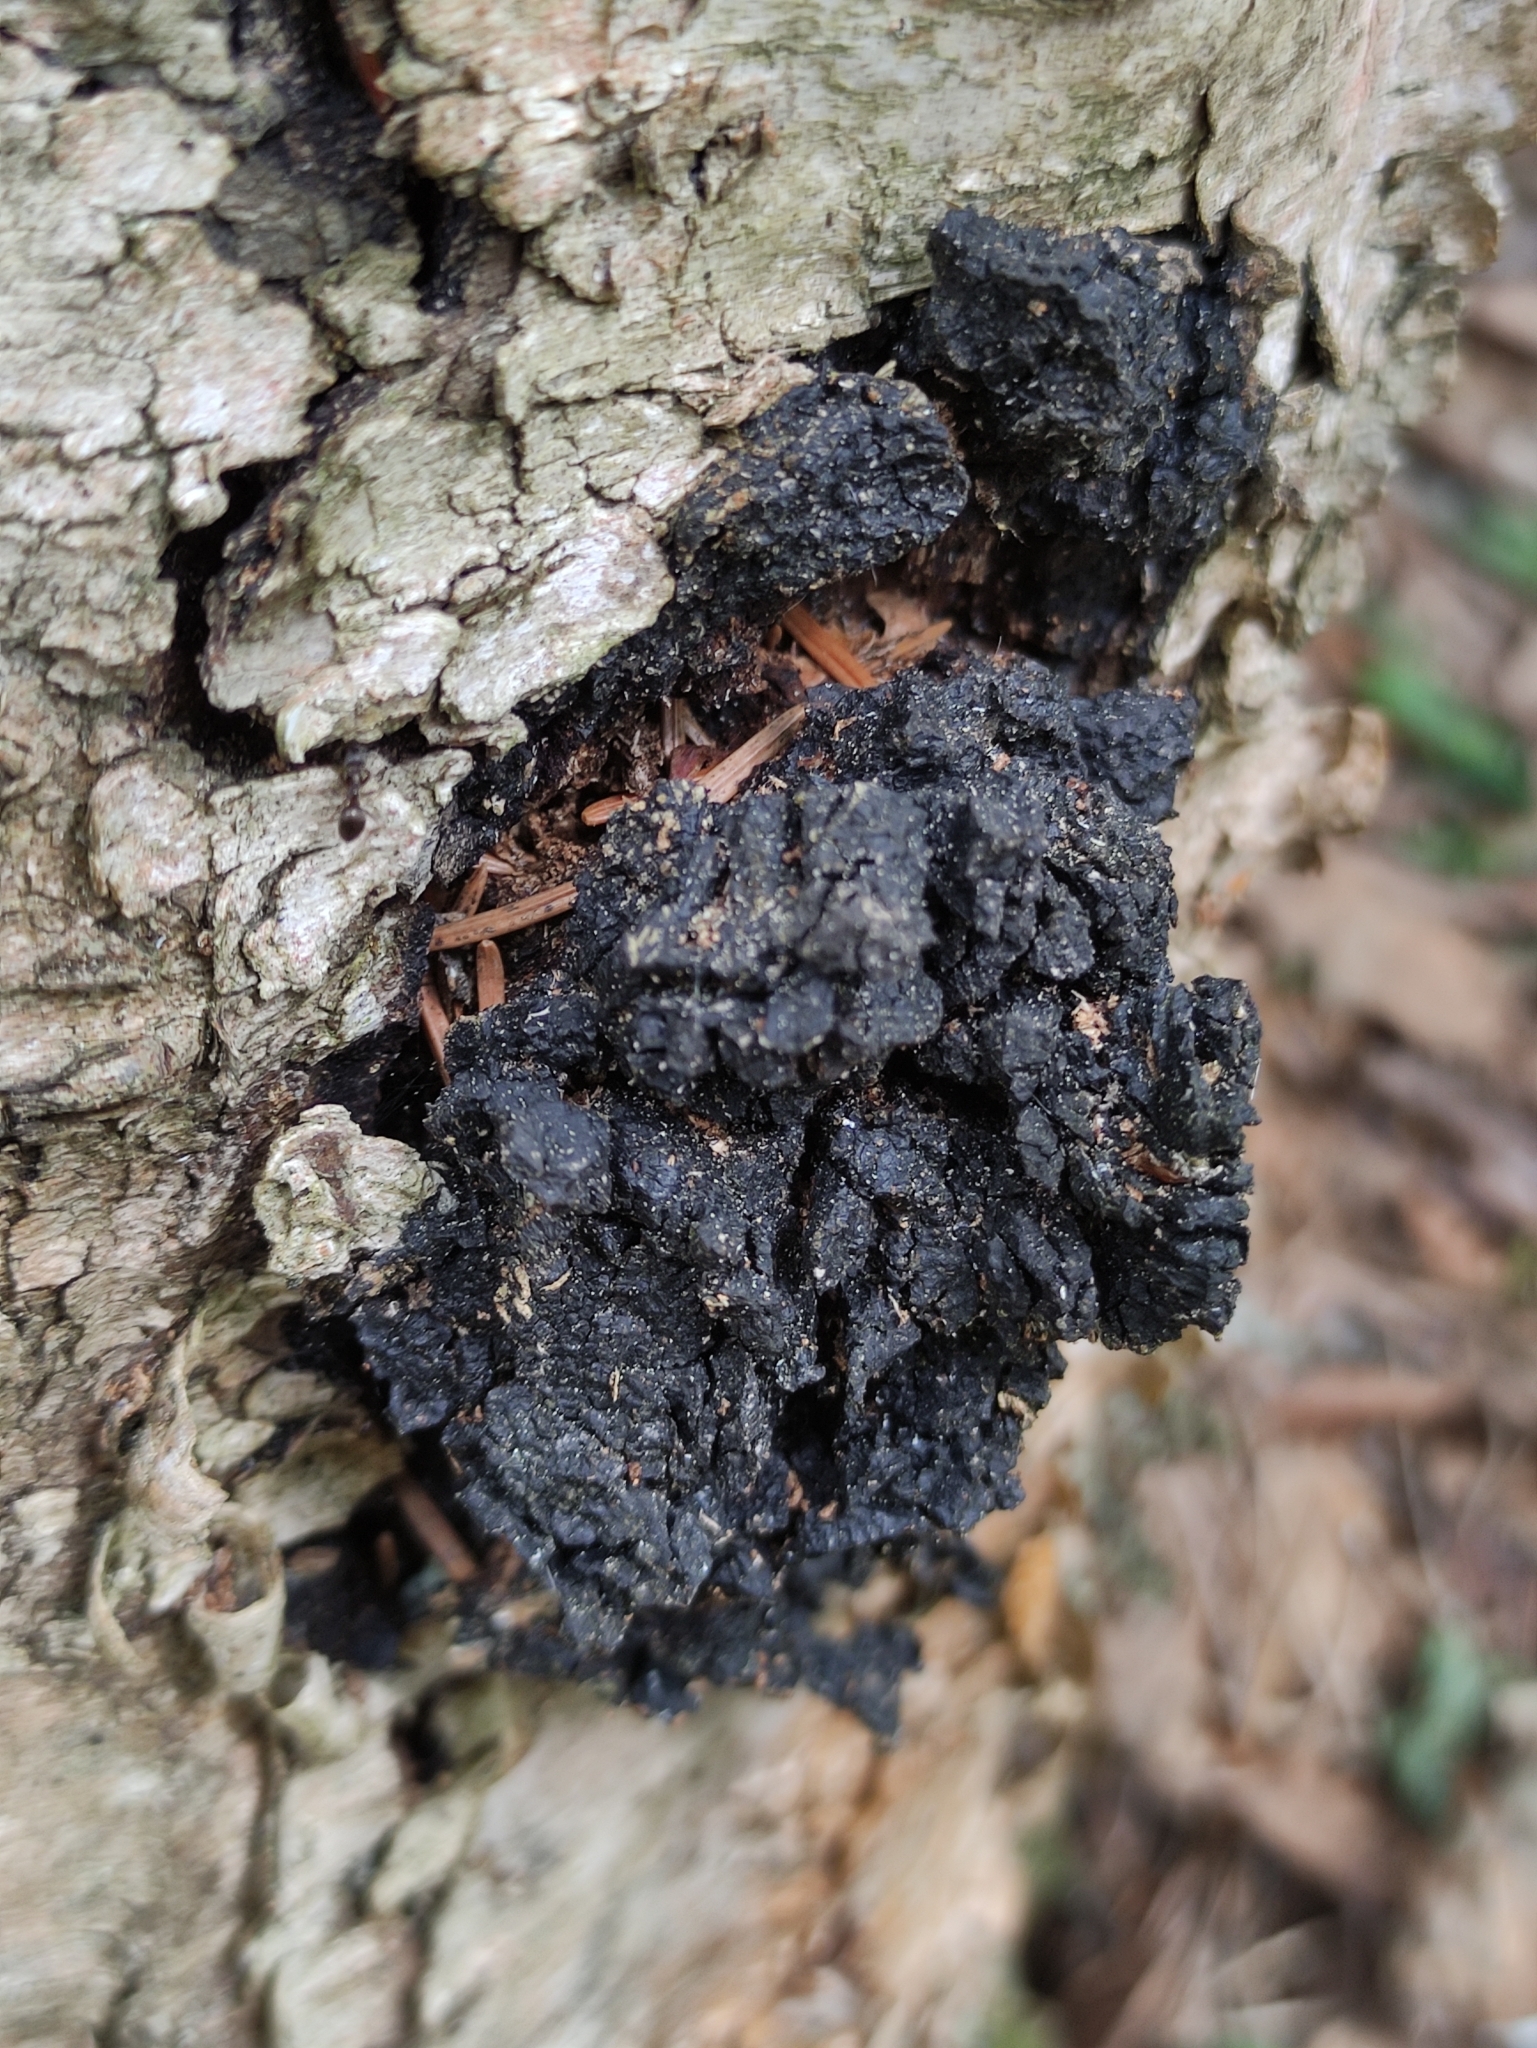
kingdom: Fungi
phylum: Basidiomycota
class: Agaricomycetes
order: Hymenochaetales
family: Hymenochaetaceae
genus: Inonotus
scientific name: Inonotus obliquus
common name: Chaga
